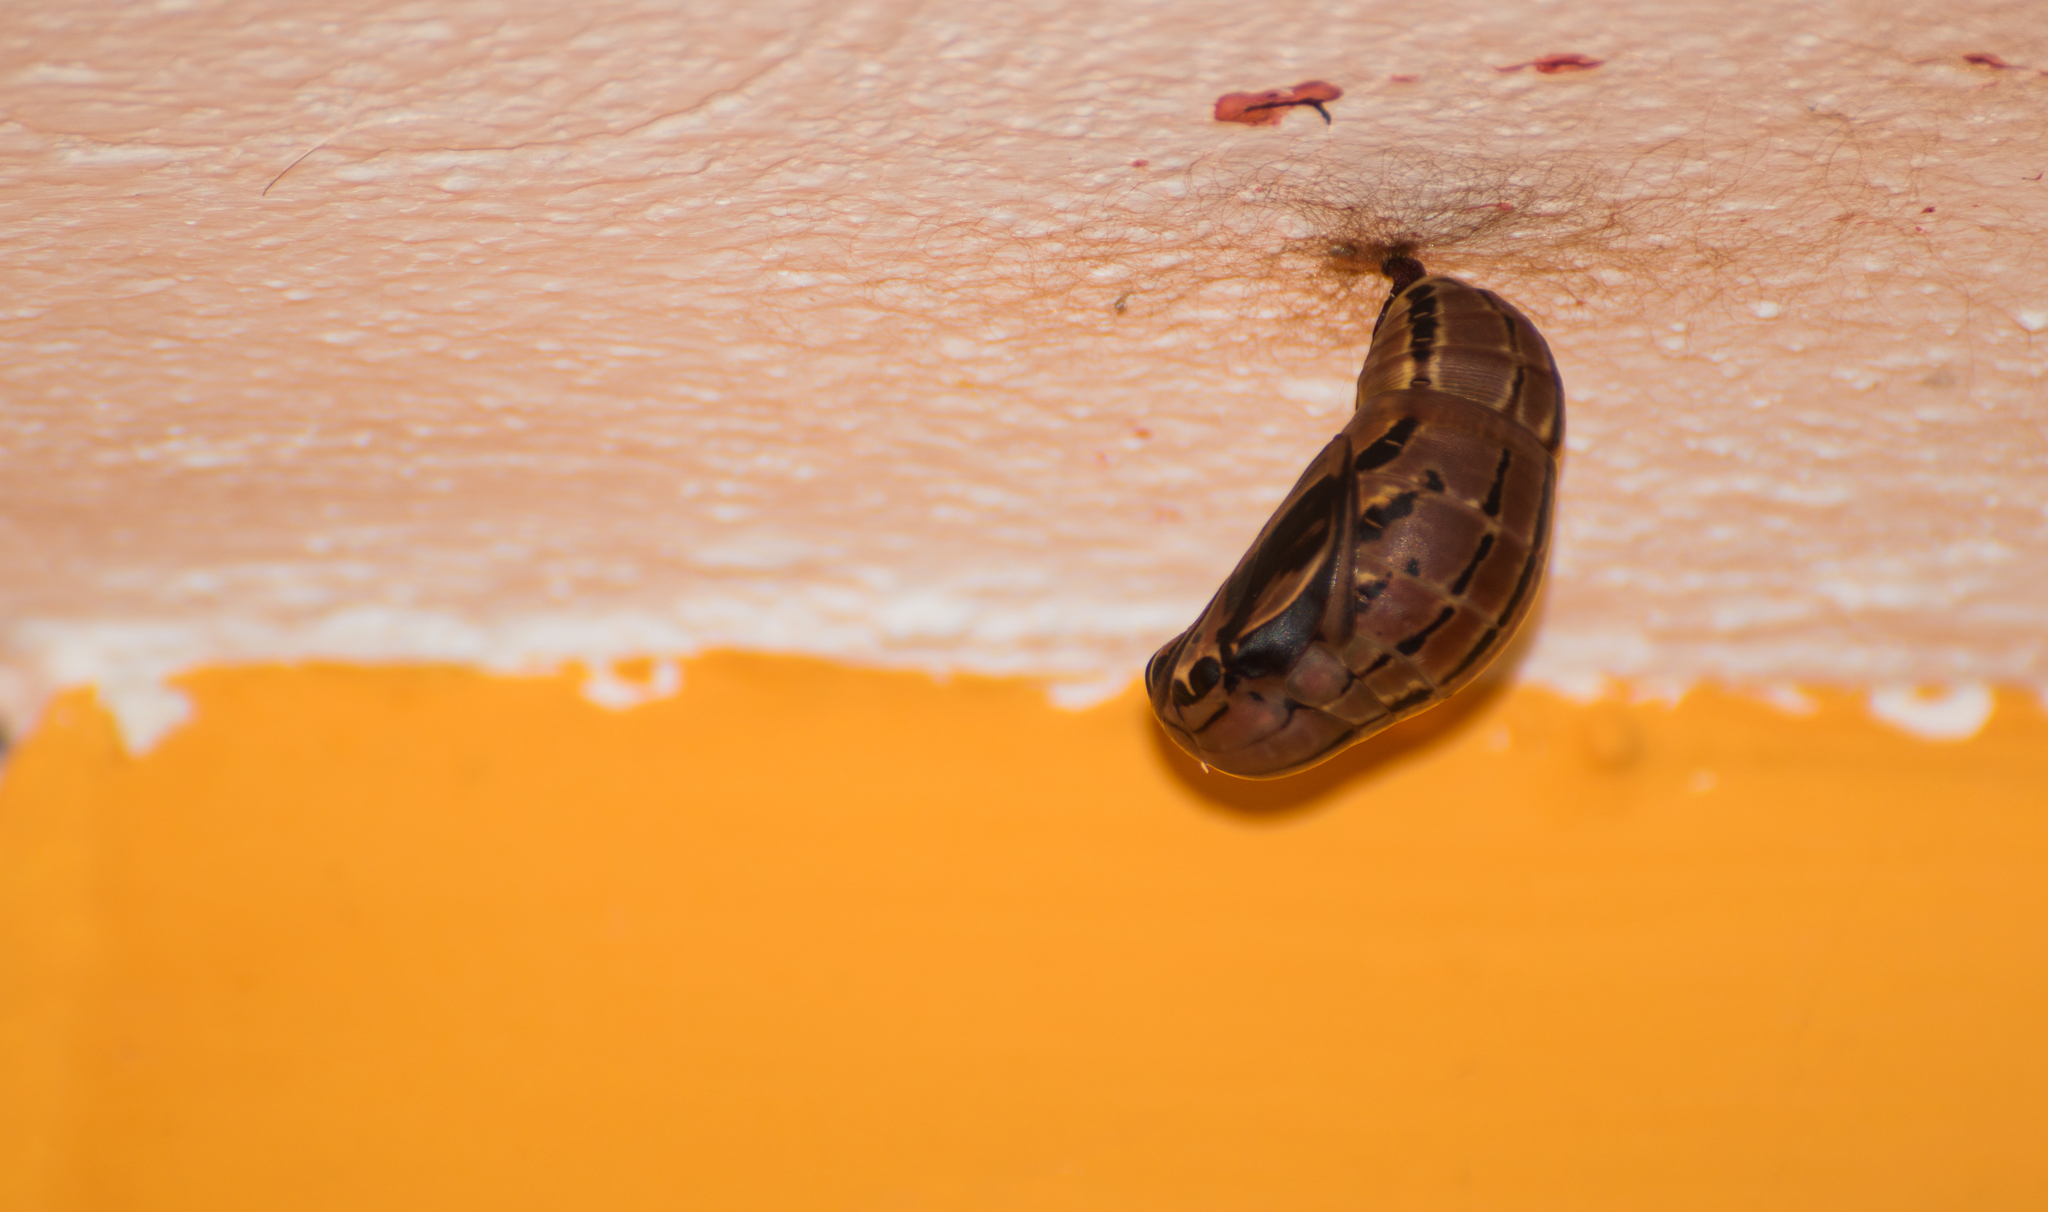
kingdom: Animalia
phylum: Arthropoda
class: Insecta
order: Lepidoptera
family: Nymphalidae
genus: Brassolis
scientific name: Brassolis sophorae
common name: Coconut caterpillar
